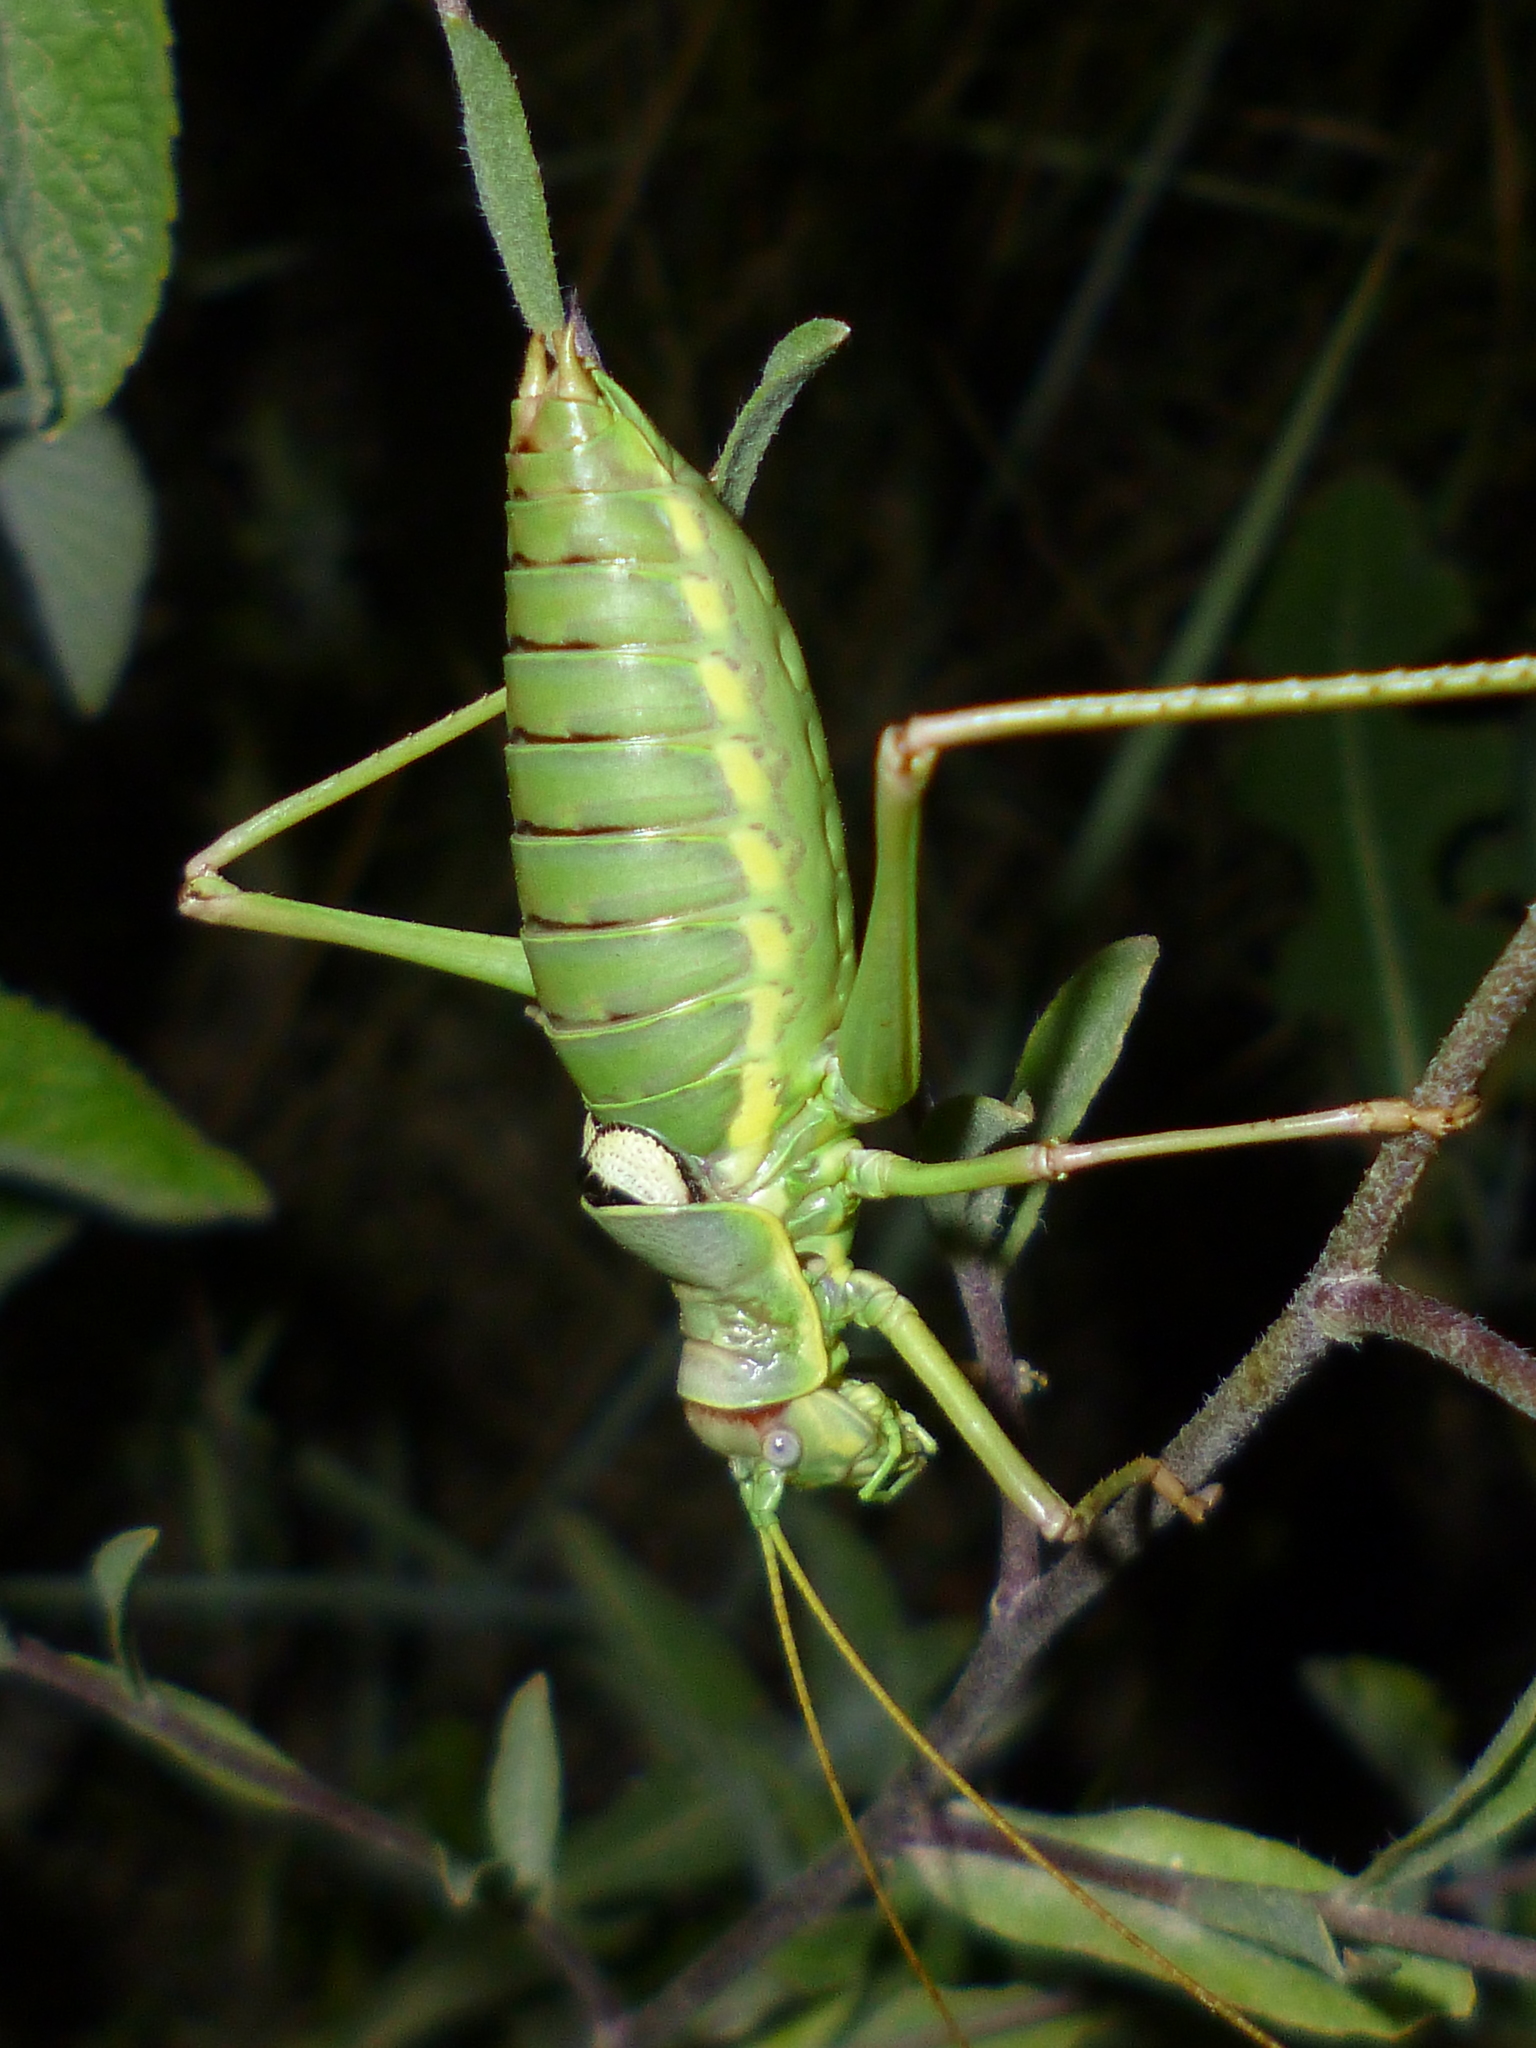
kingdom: Animalia
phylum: Arthropoda
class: Insecta
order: Orthoptera
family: Tettigoniidae
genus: Dinarippiger
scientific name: Dinarippiger discoidalis
